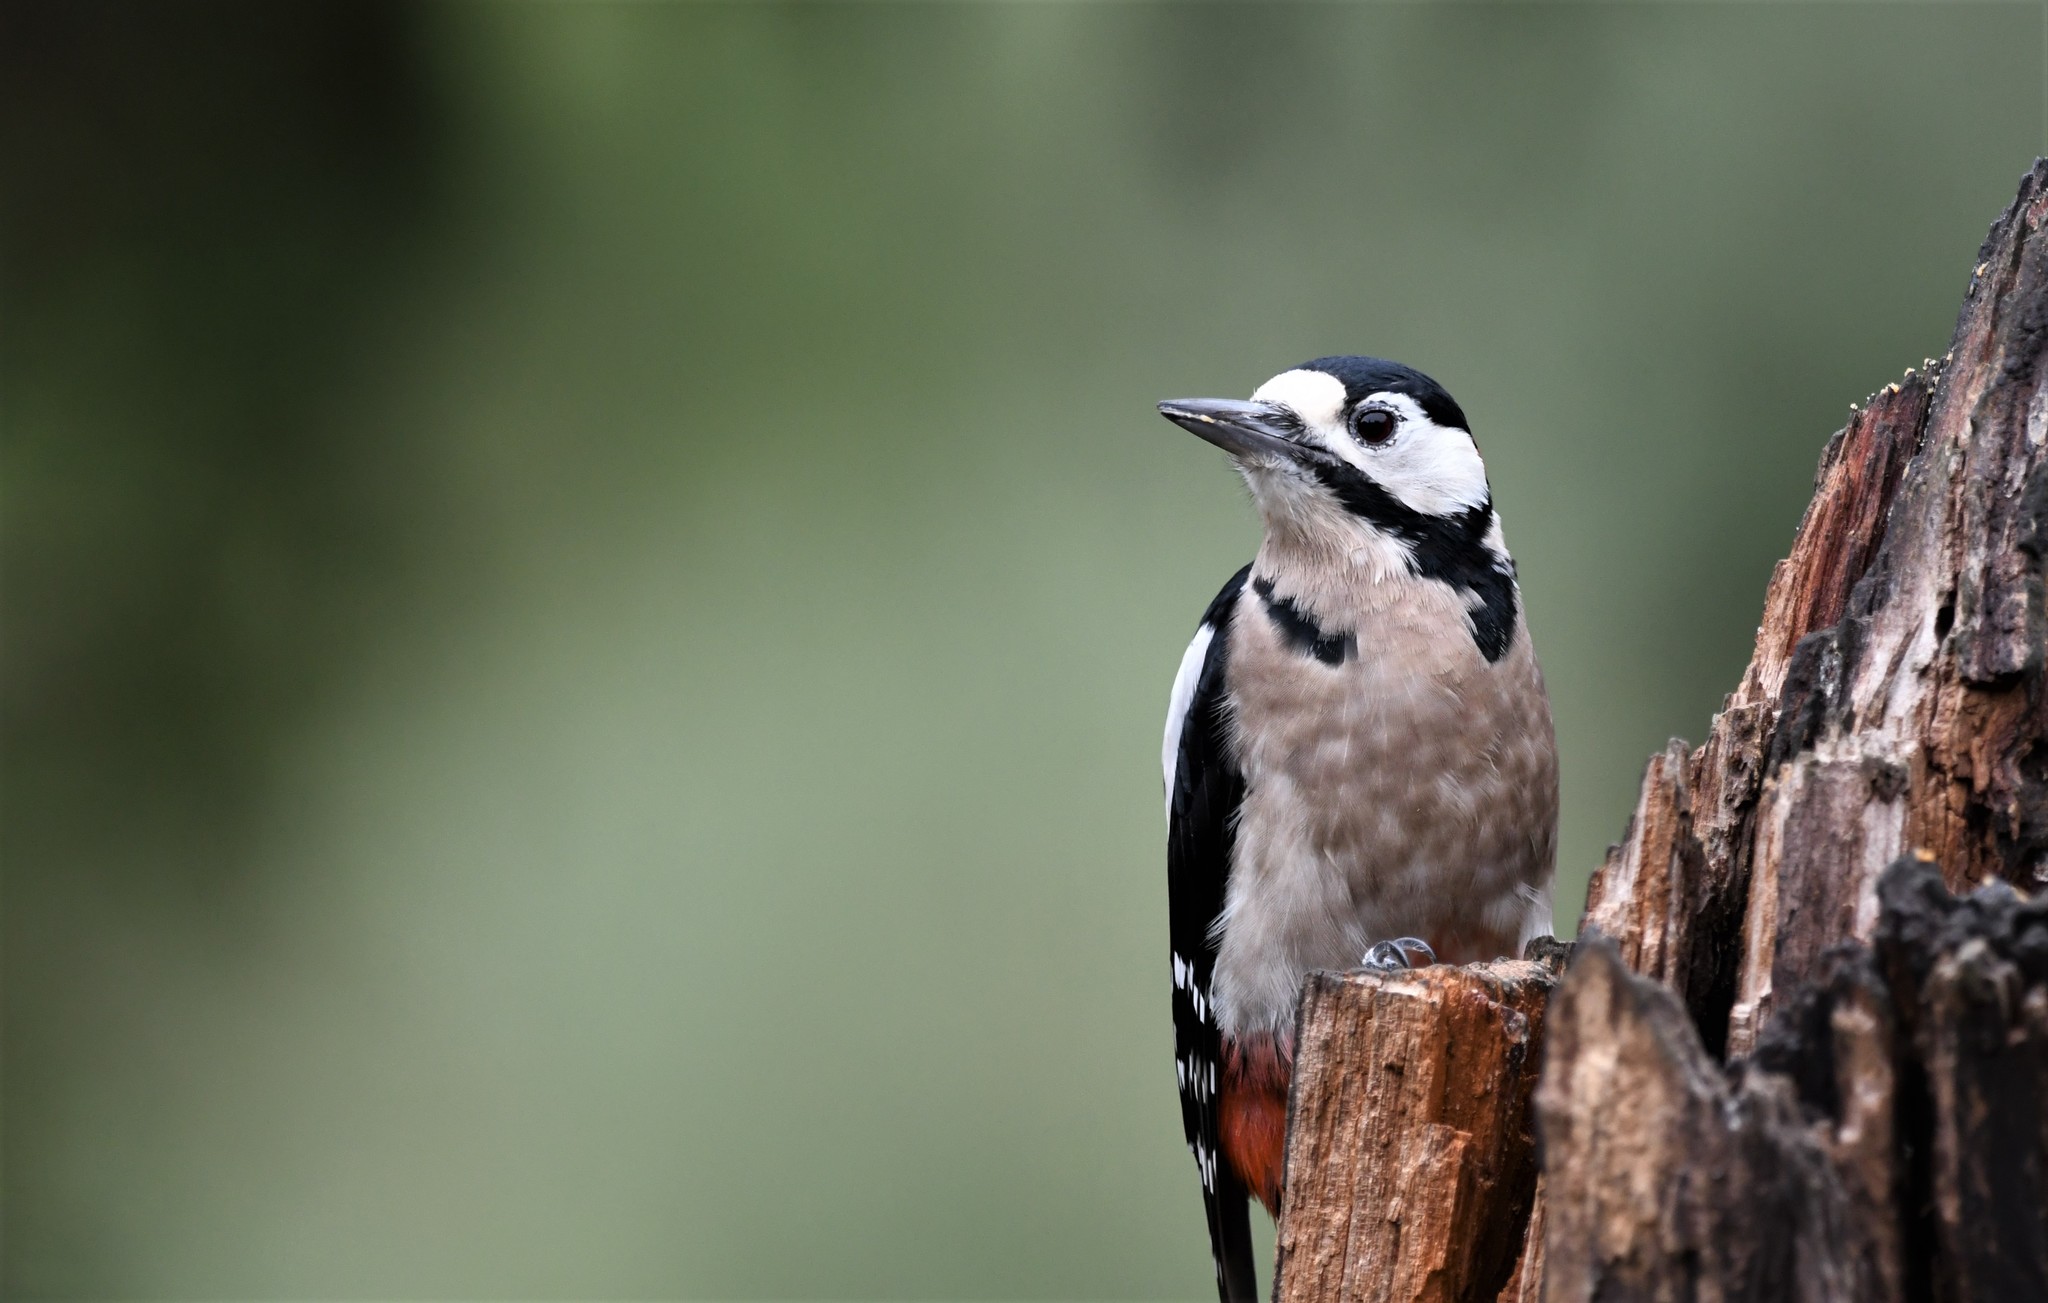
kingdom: Animalia
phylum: Chordata
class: Aves
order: Piciformes
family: Picidae
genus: Dendrocopos
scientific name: Dendrocopos major
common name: Great spotted woodpecker
